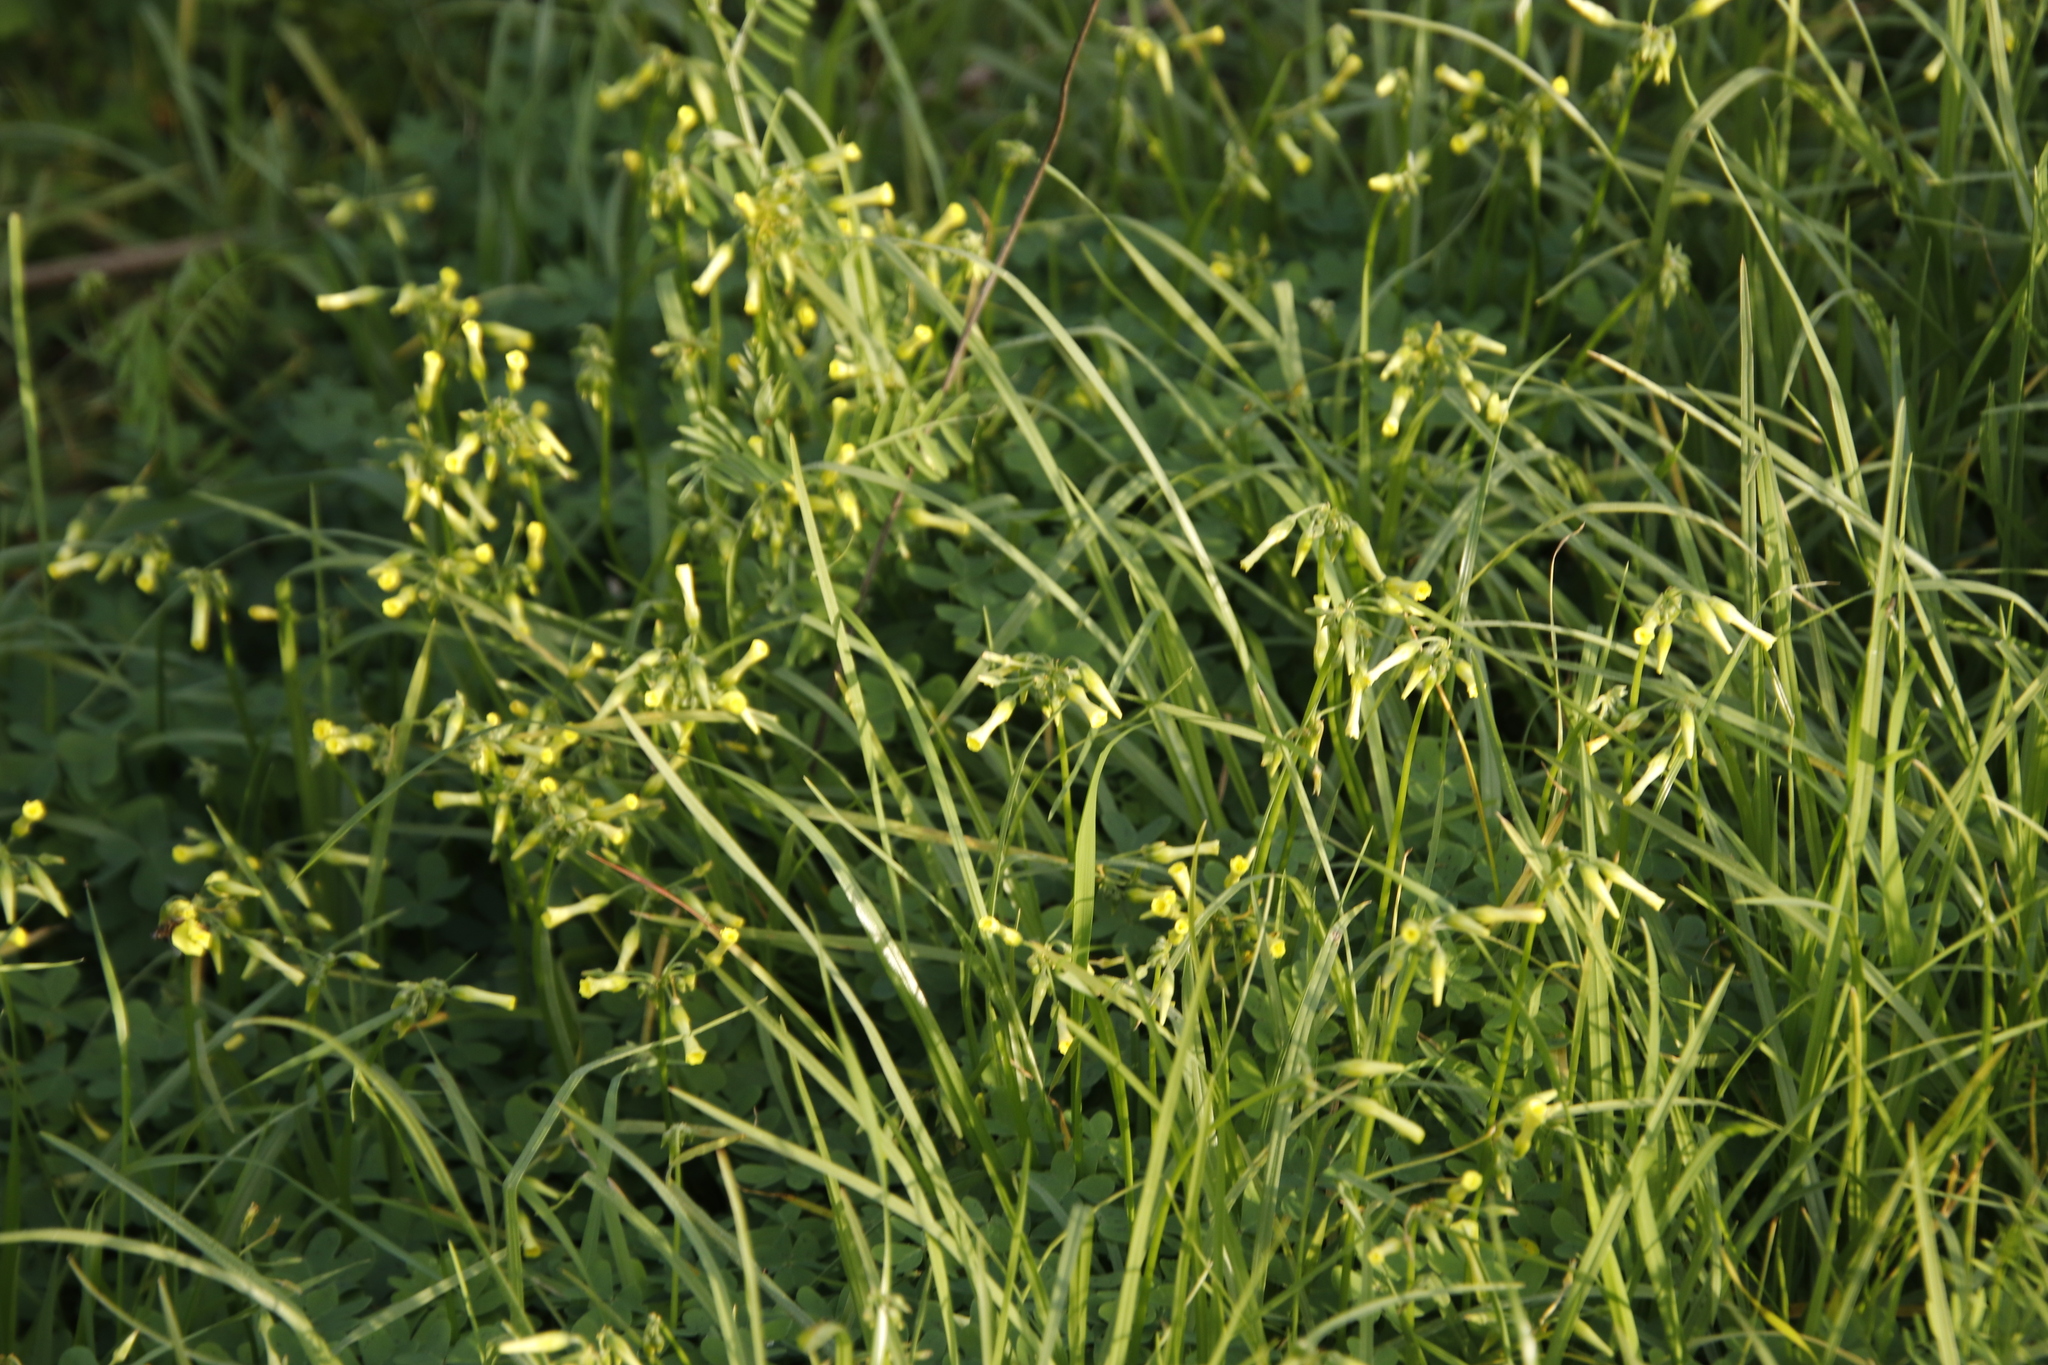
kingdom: Plantae
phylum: Tracheophyta
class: Magnoliopsida
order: Oxalidales
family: Oxalidaceae
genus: Oxalis
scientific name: Oxalis pes-caprae
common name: Bermuda-buttercup
